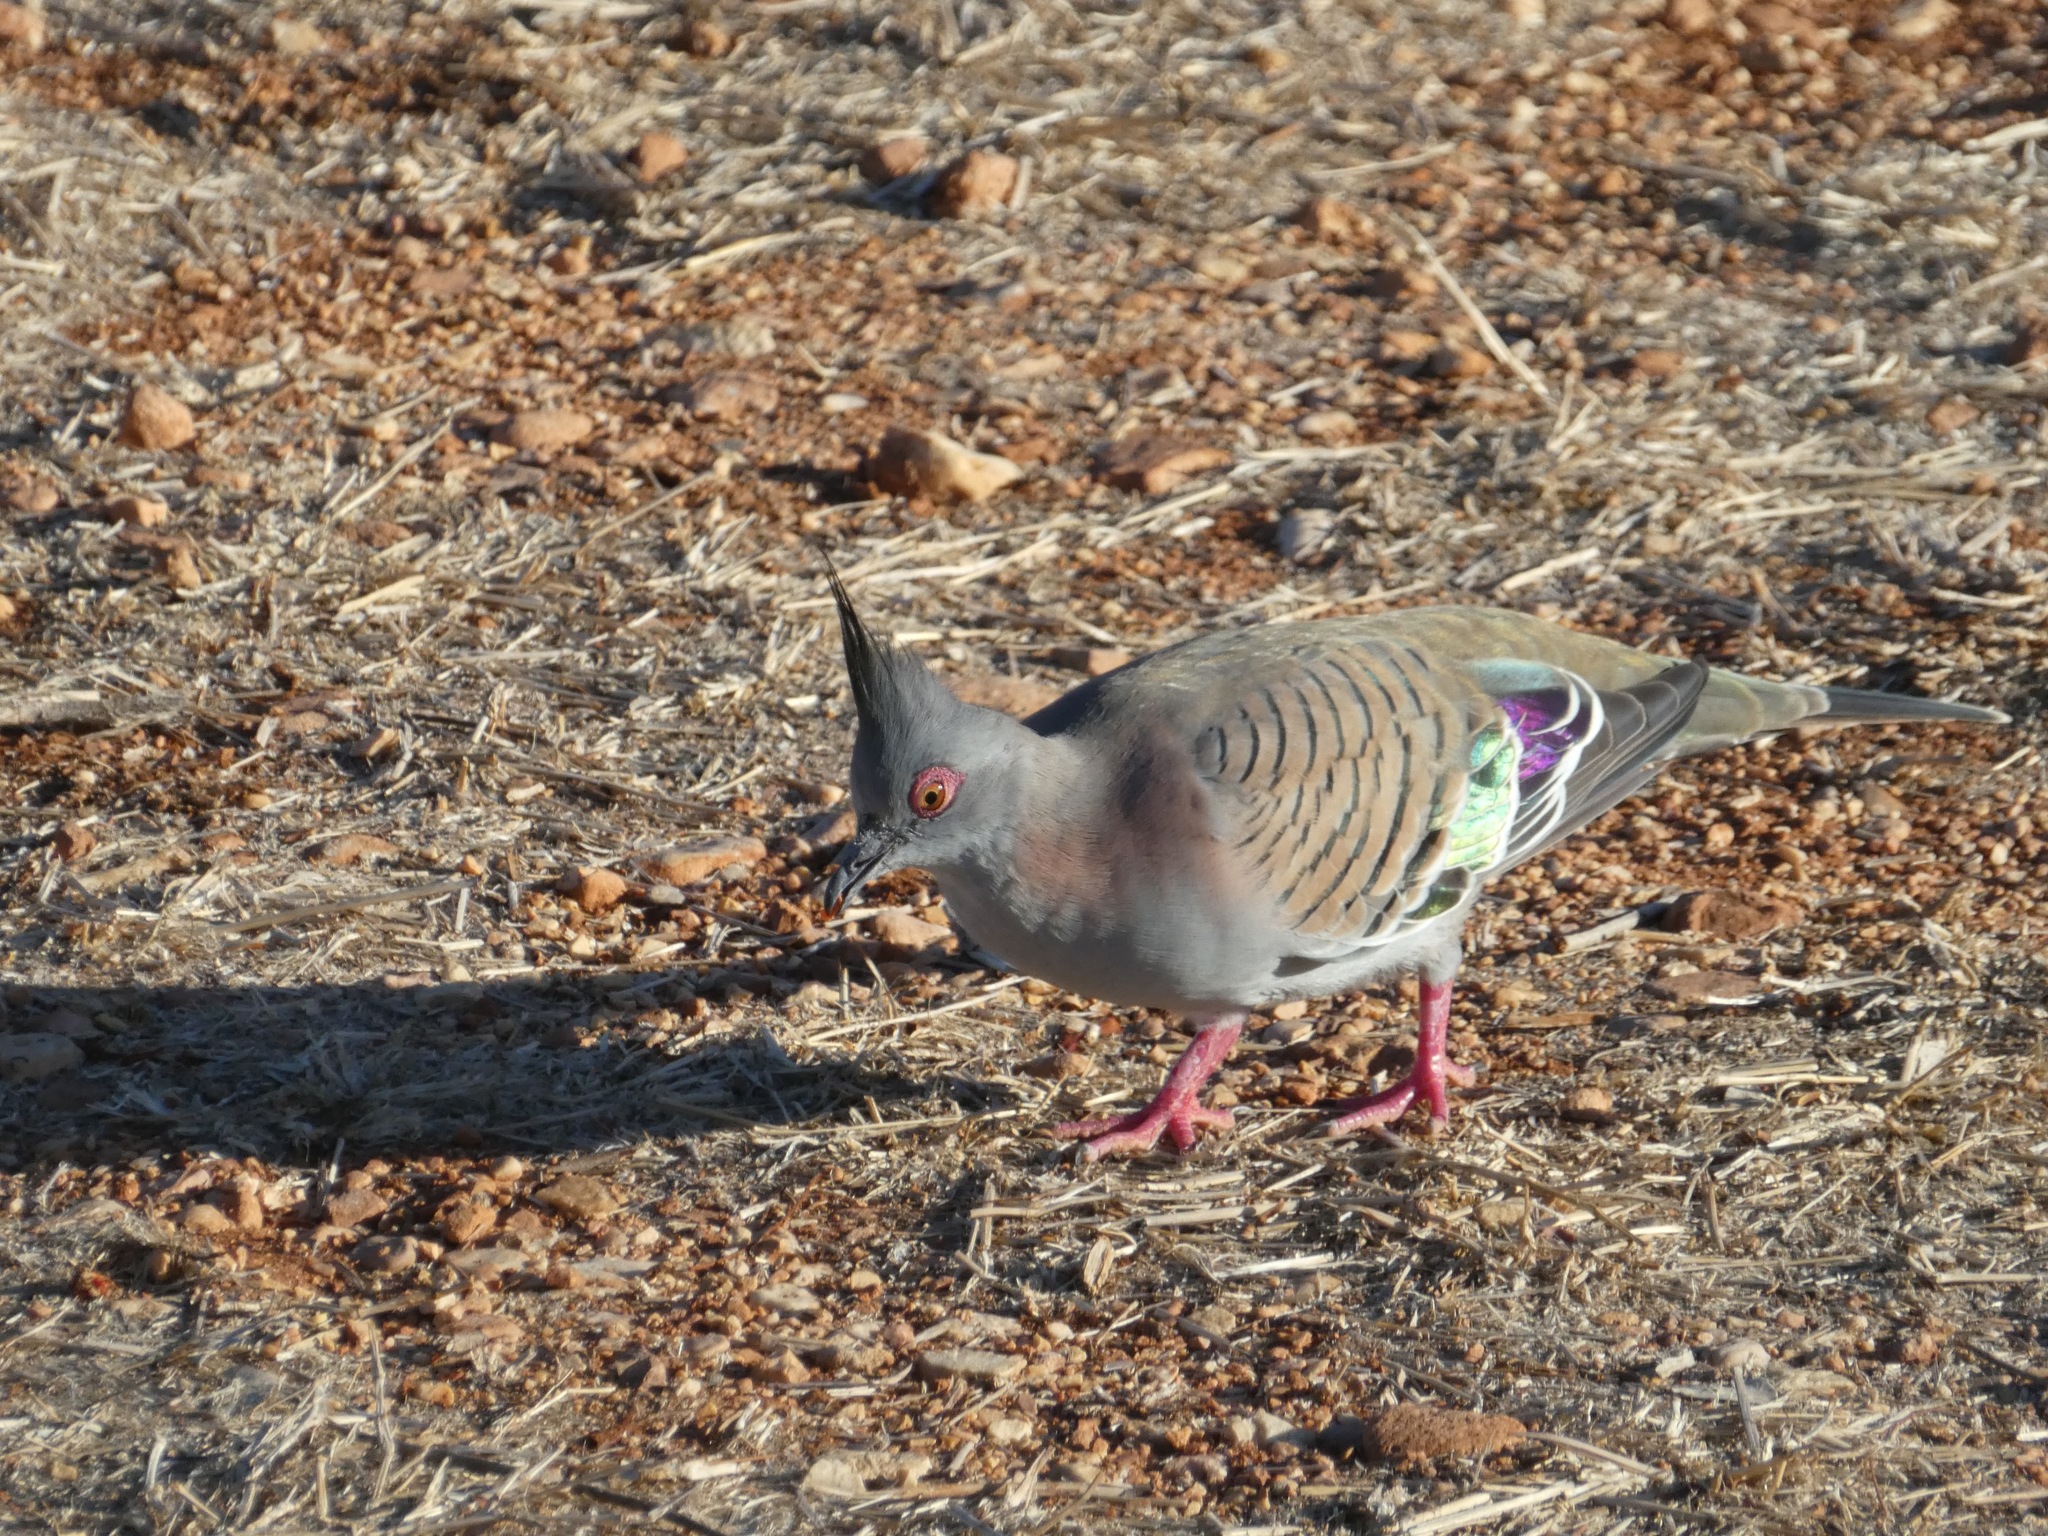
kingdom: Animalia
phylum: Chordata
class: Aves
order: Columbiformes
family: Columbidae
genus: Ocyphaps
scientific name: Ocyphaps lophotes
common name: Crested pigeon
